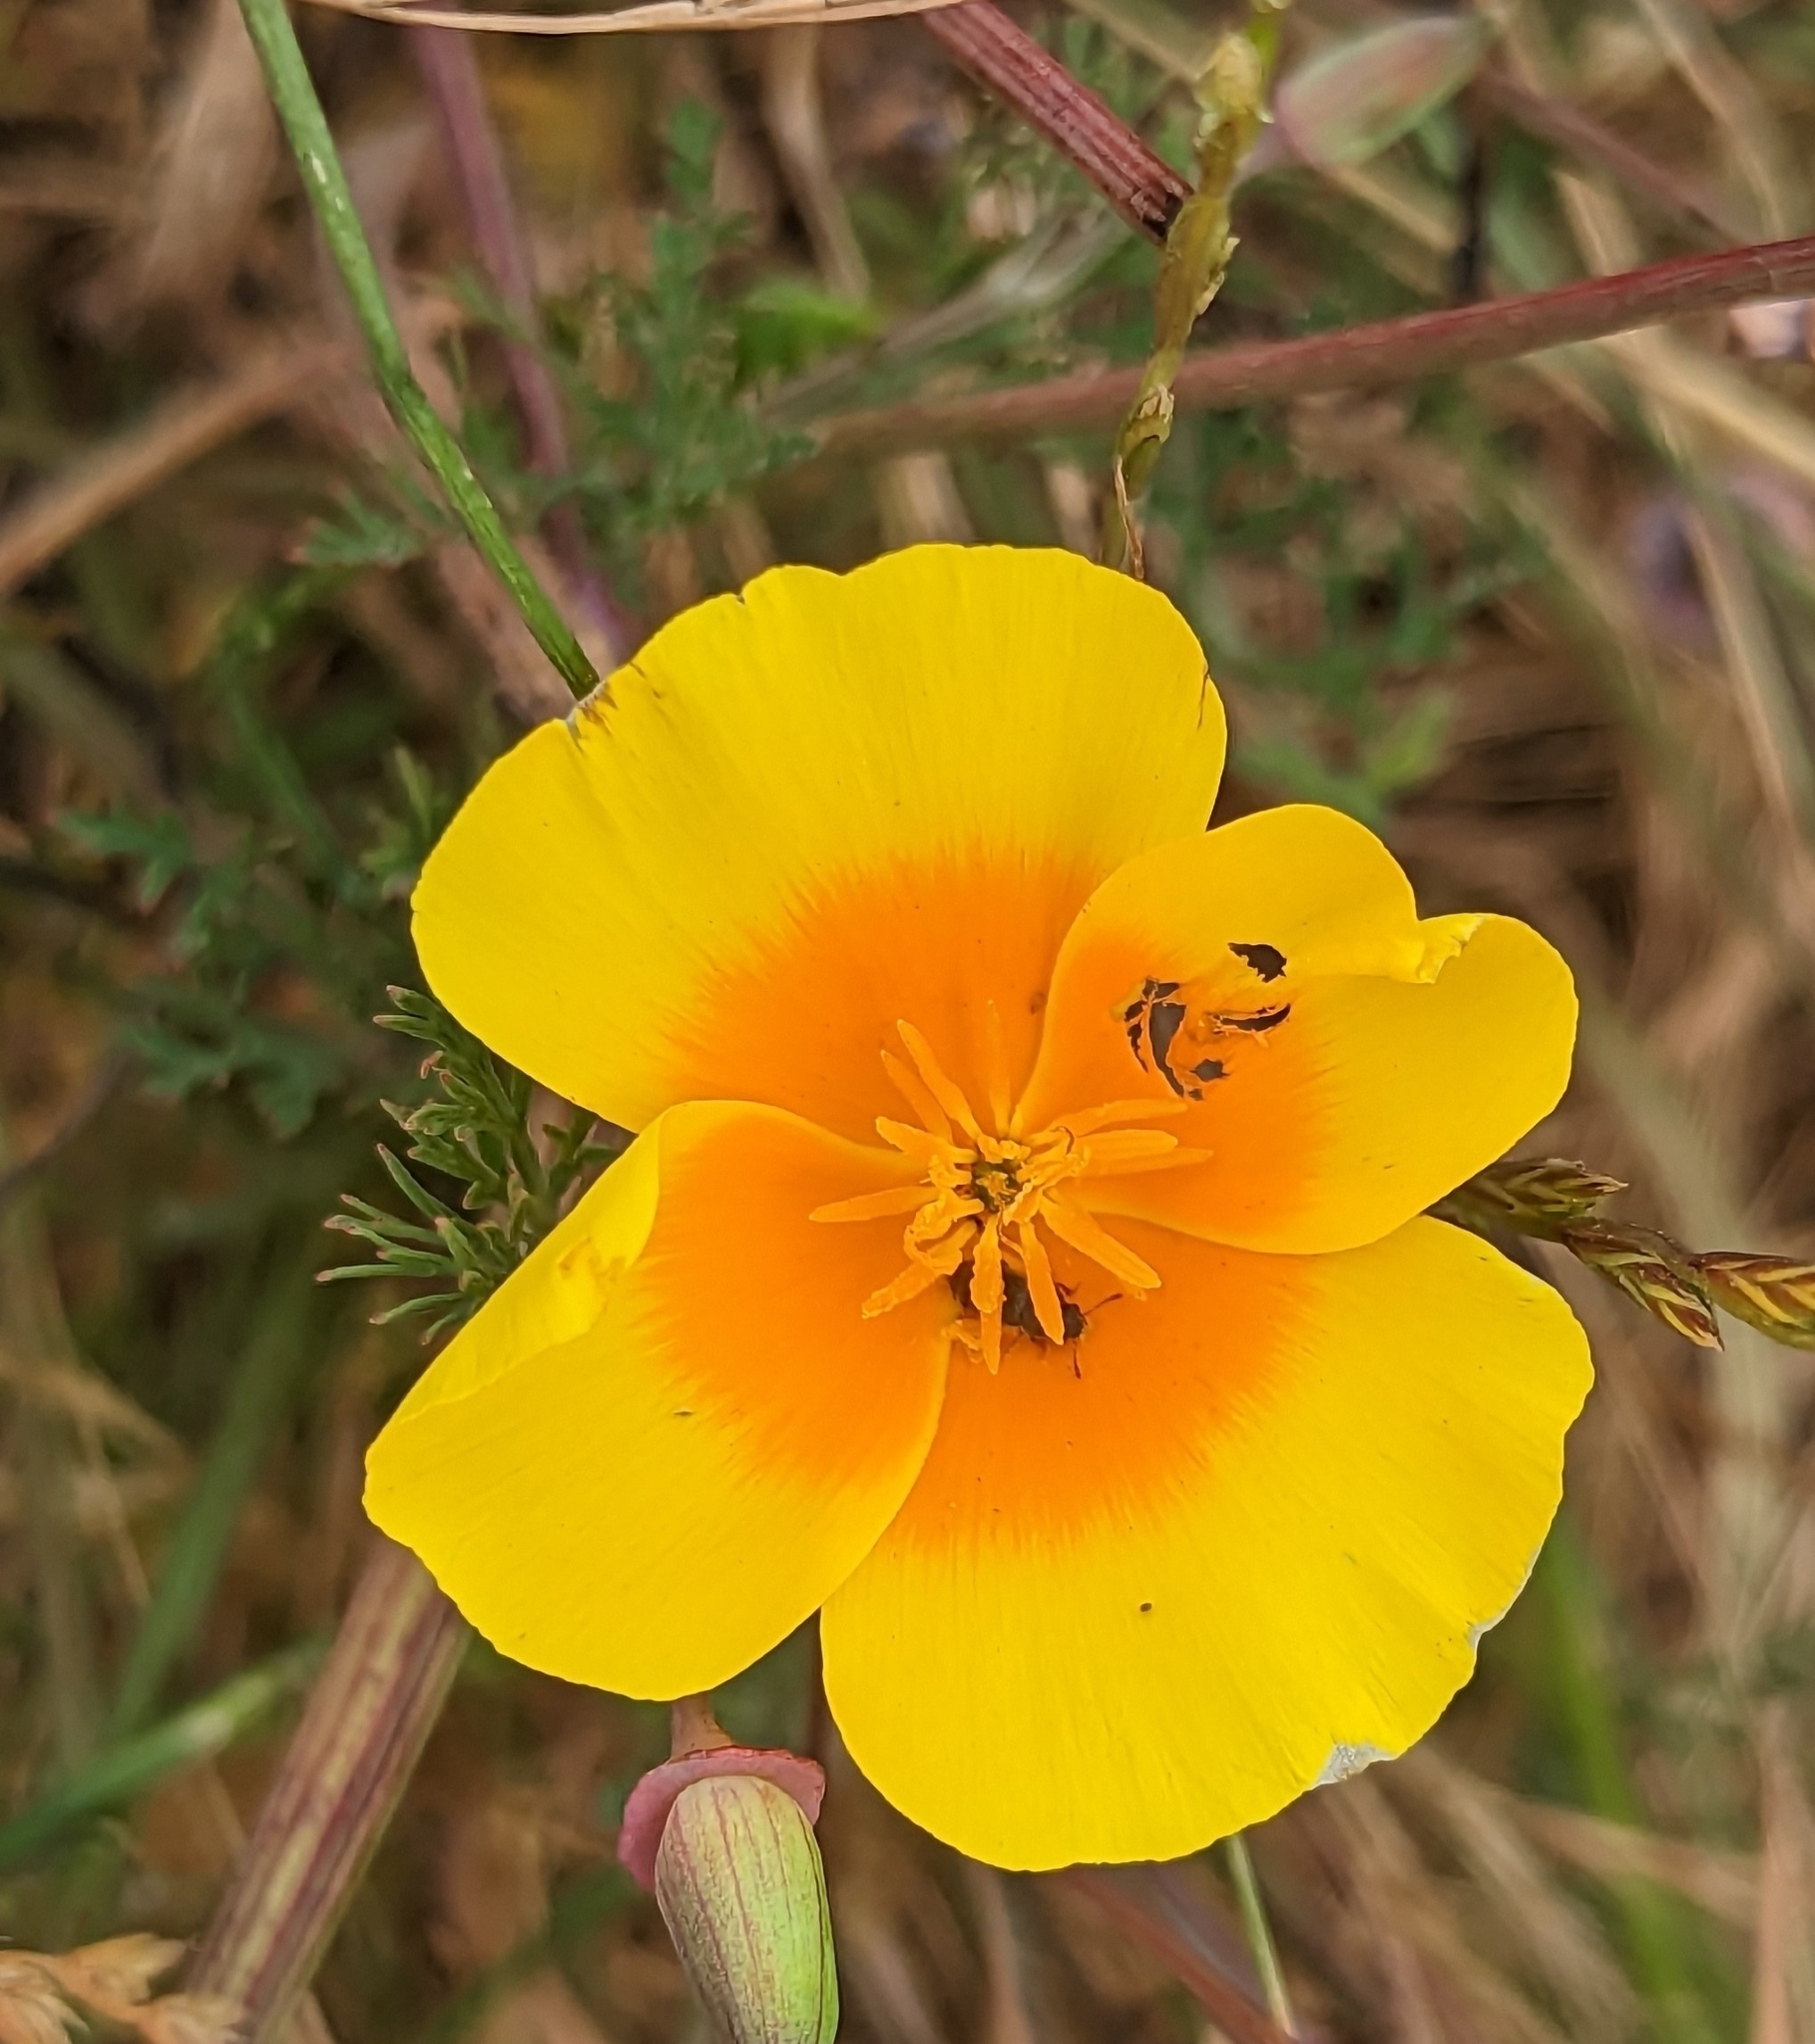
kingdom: Plantae
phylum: Tracheophyta
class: Magnoliopsida
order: Ranunculales
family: Papaveraceae
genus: Eschscholzia
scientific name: Eschscholzia californica
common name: California poppy
